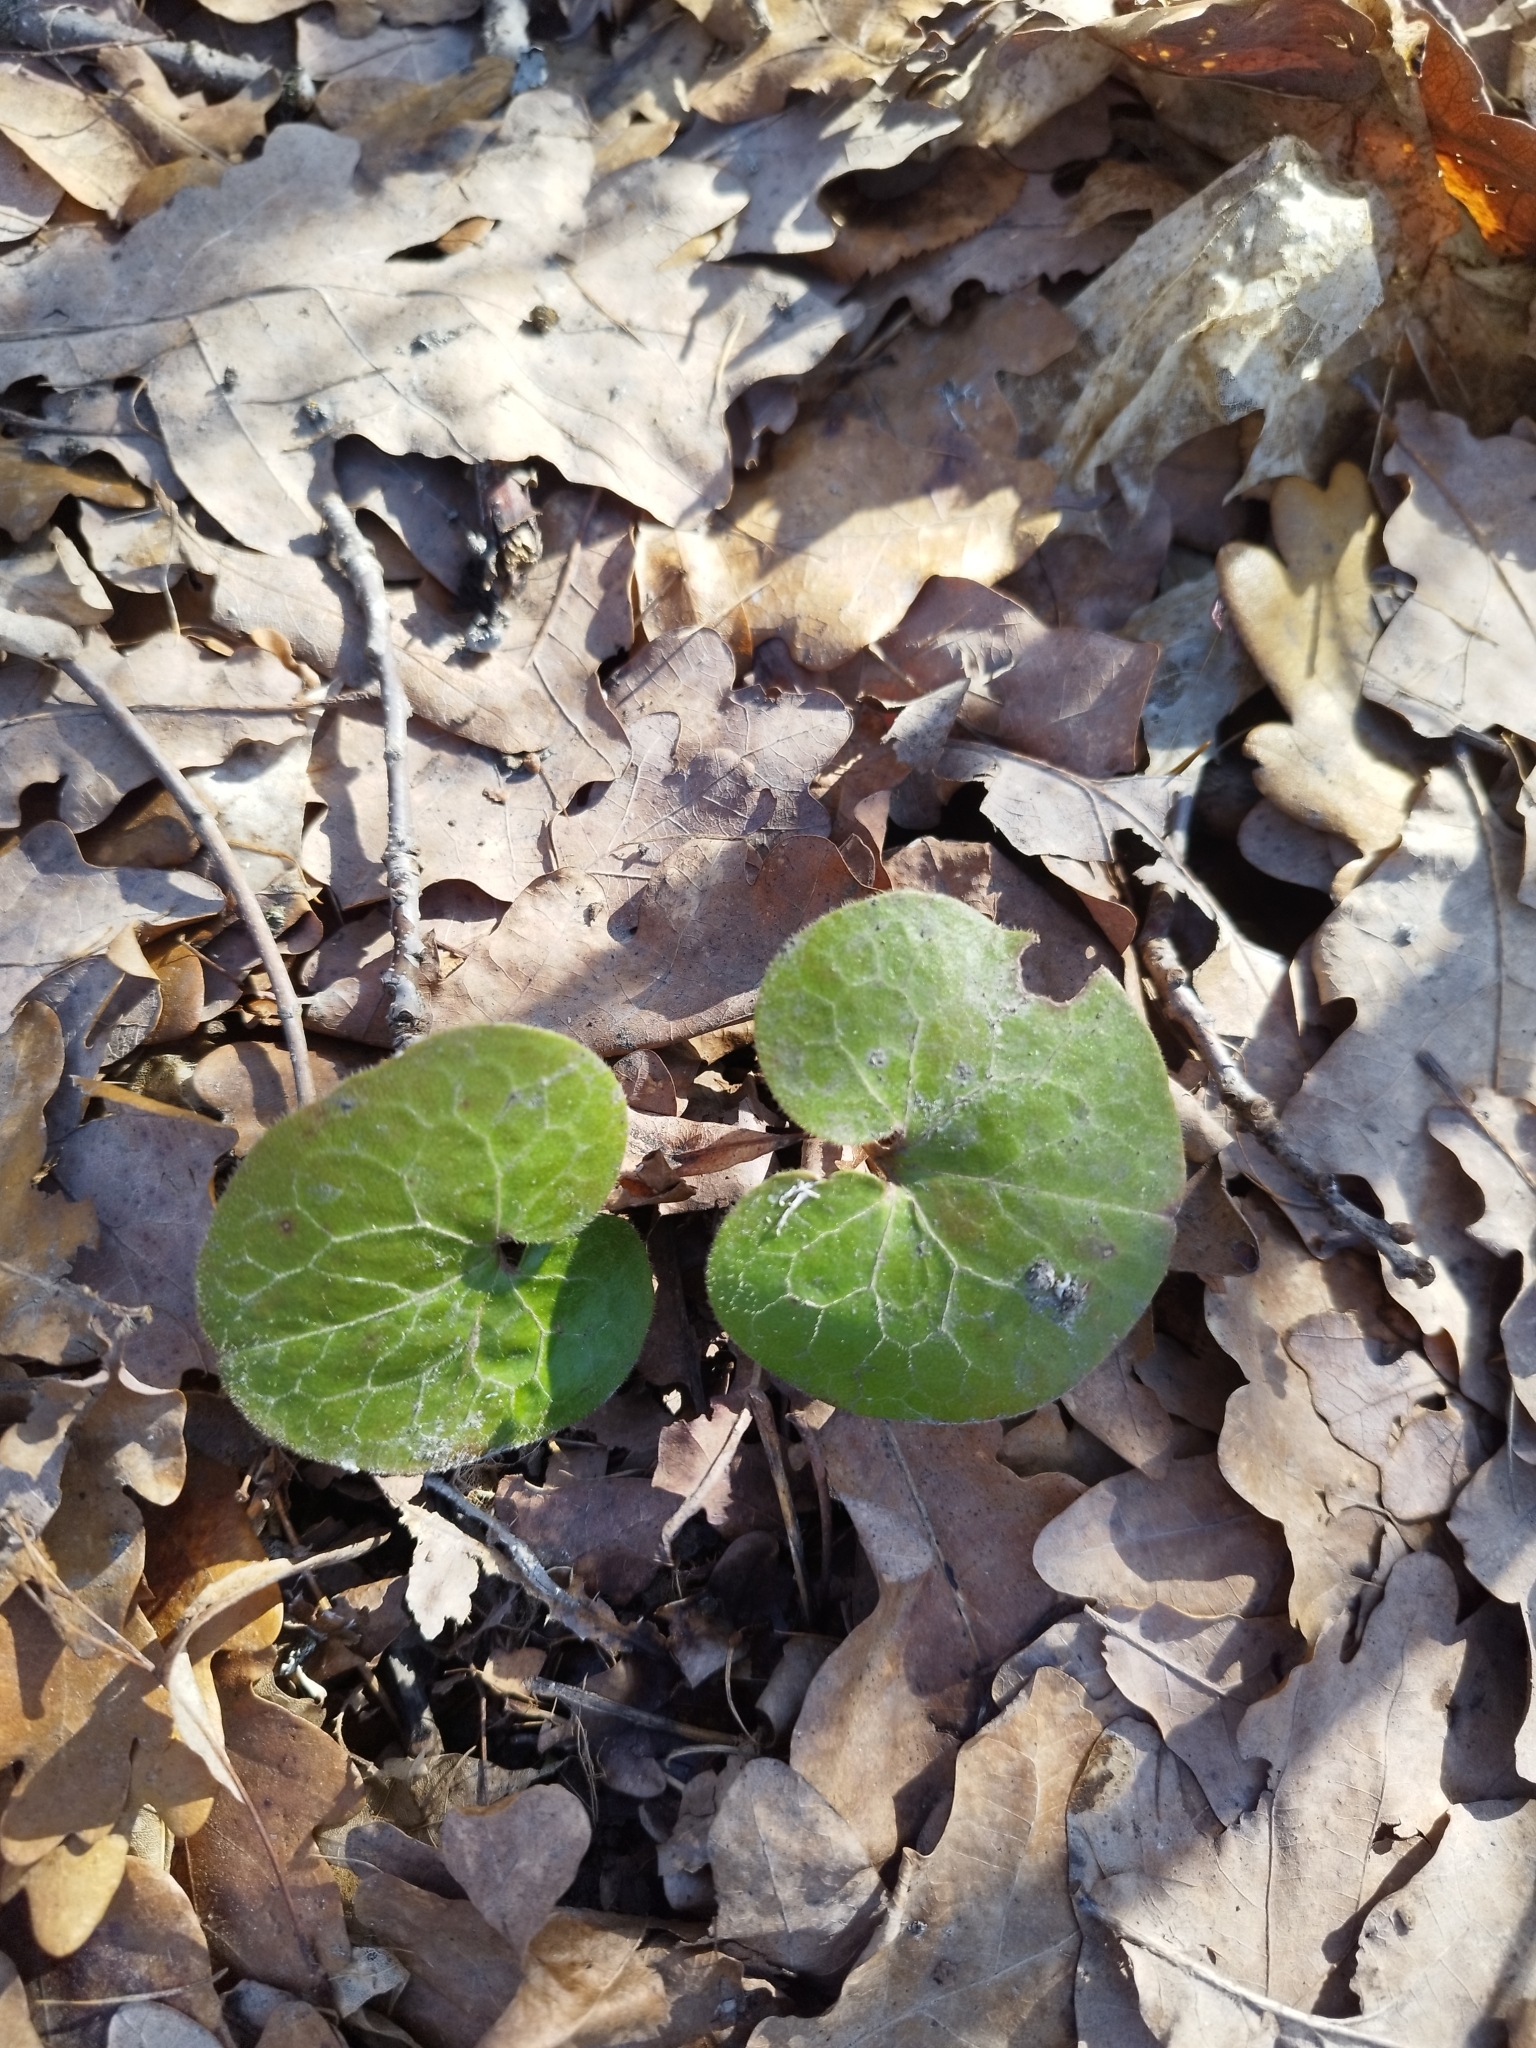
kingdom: Plantae
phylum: Tracheophyta
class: Magnoliopsida
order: Piperales
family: Aristolochiaceae
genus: Asarum
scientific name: Asarum europaeum
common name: Asarabacca
